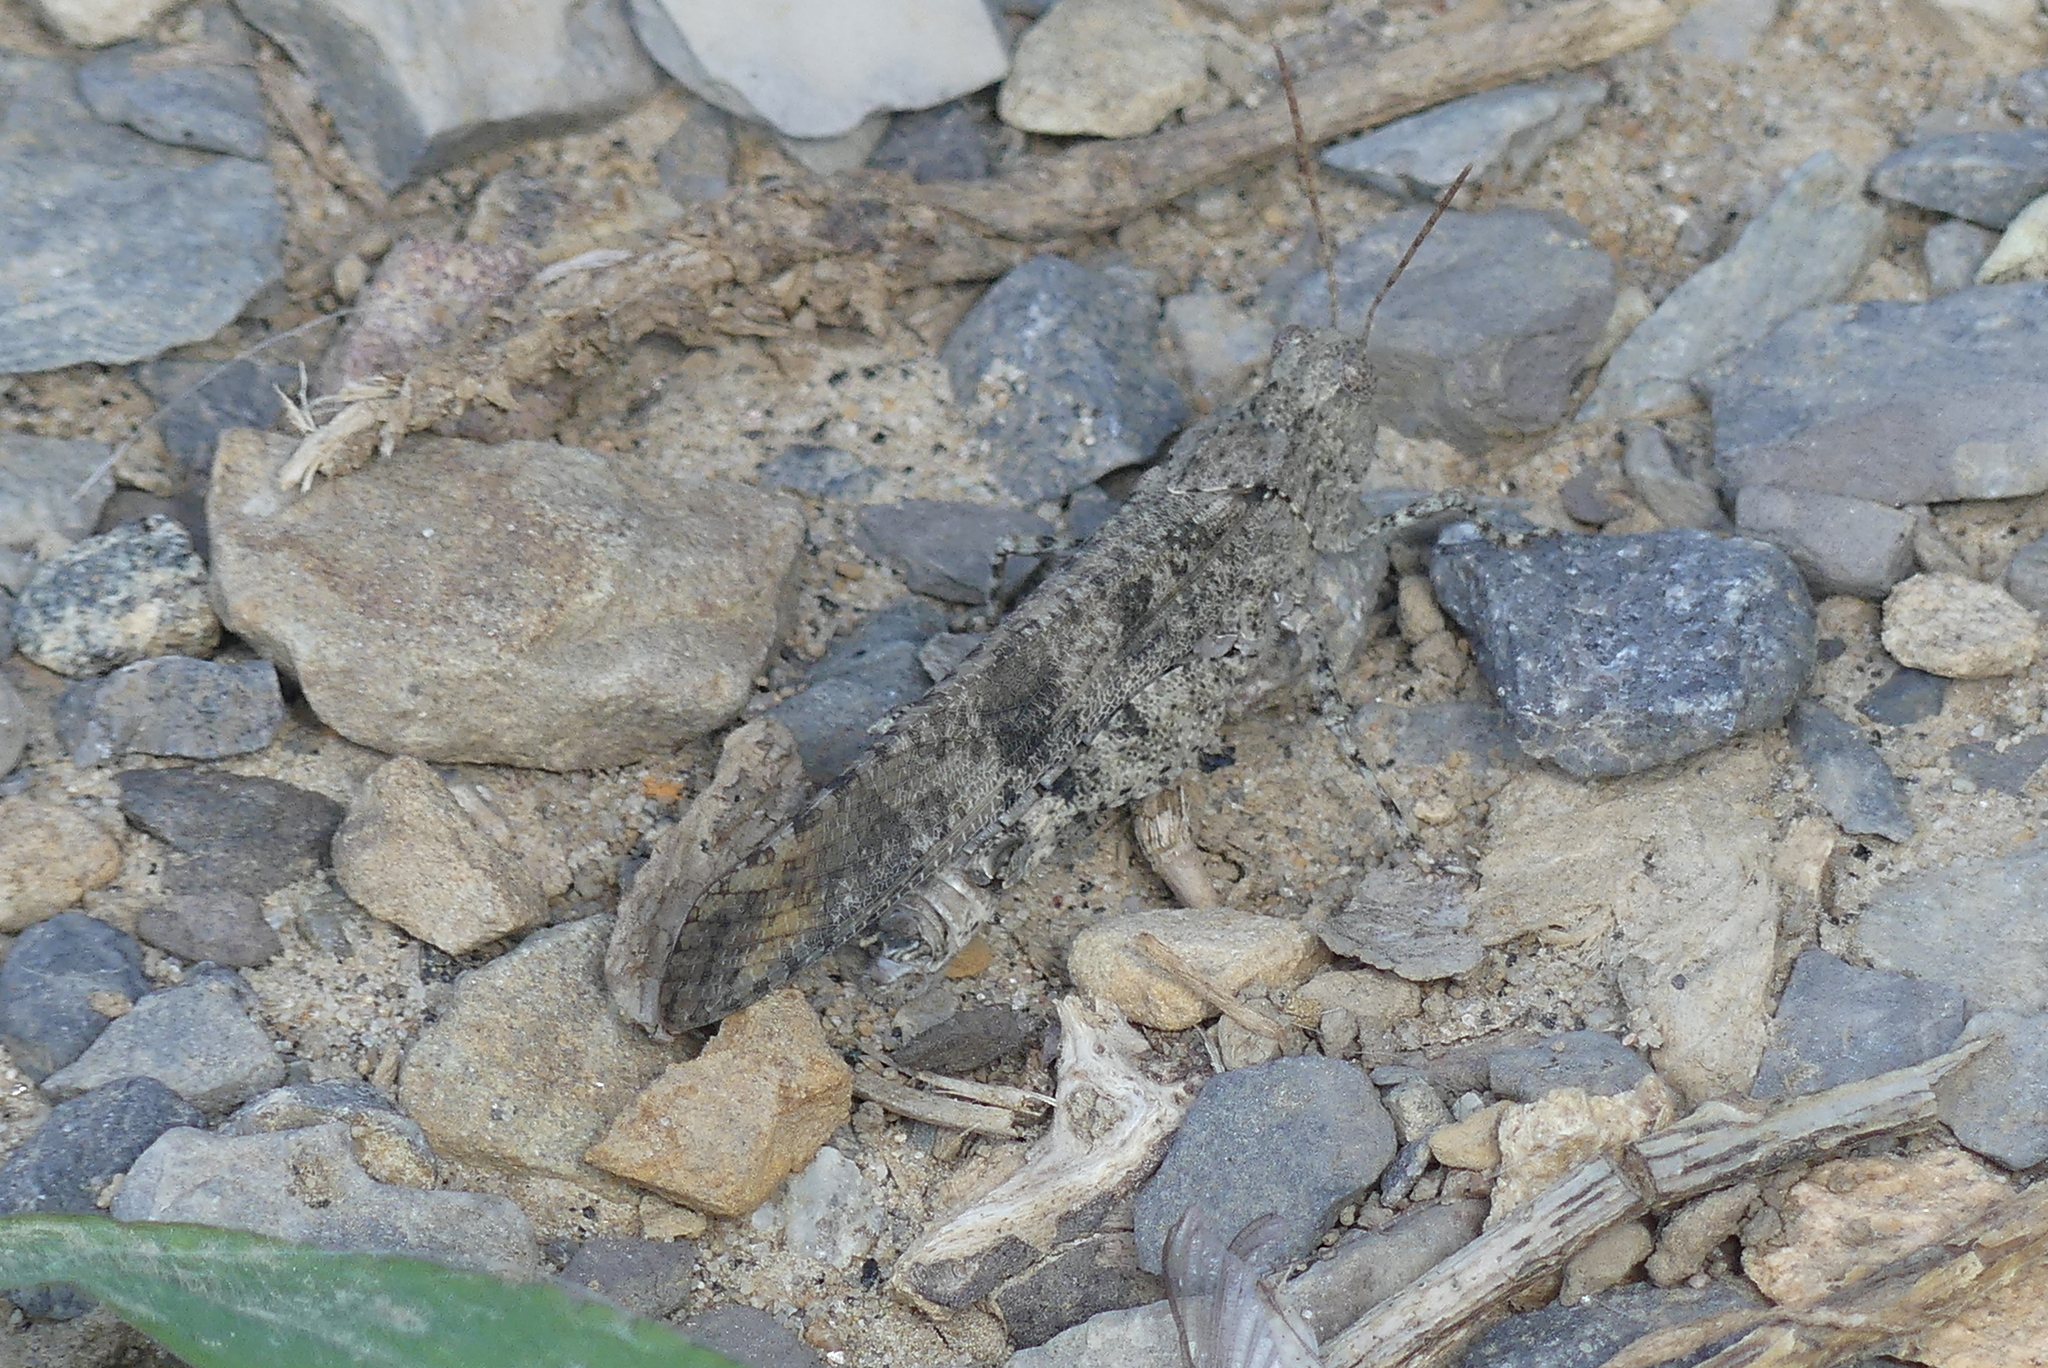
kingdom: Animalia
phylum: Arthropoda
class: Insecta
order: Orthoptera
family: Acrididae
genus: Dissosteira
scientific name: Dissosteira carolina
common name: Carolina grasshopper
